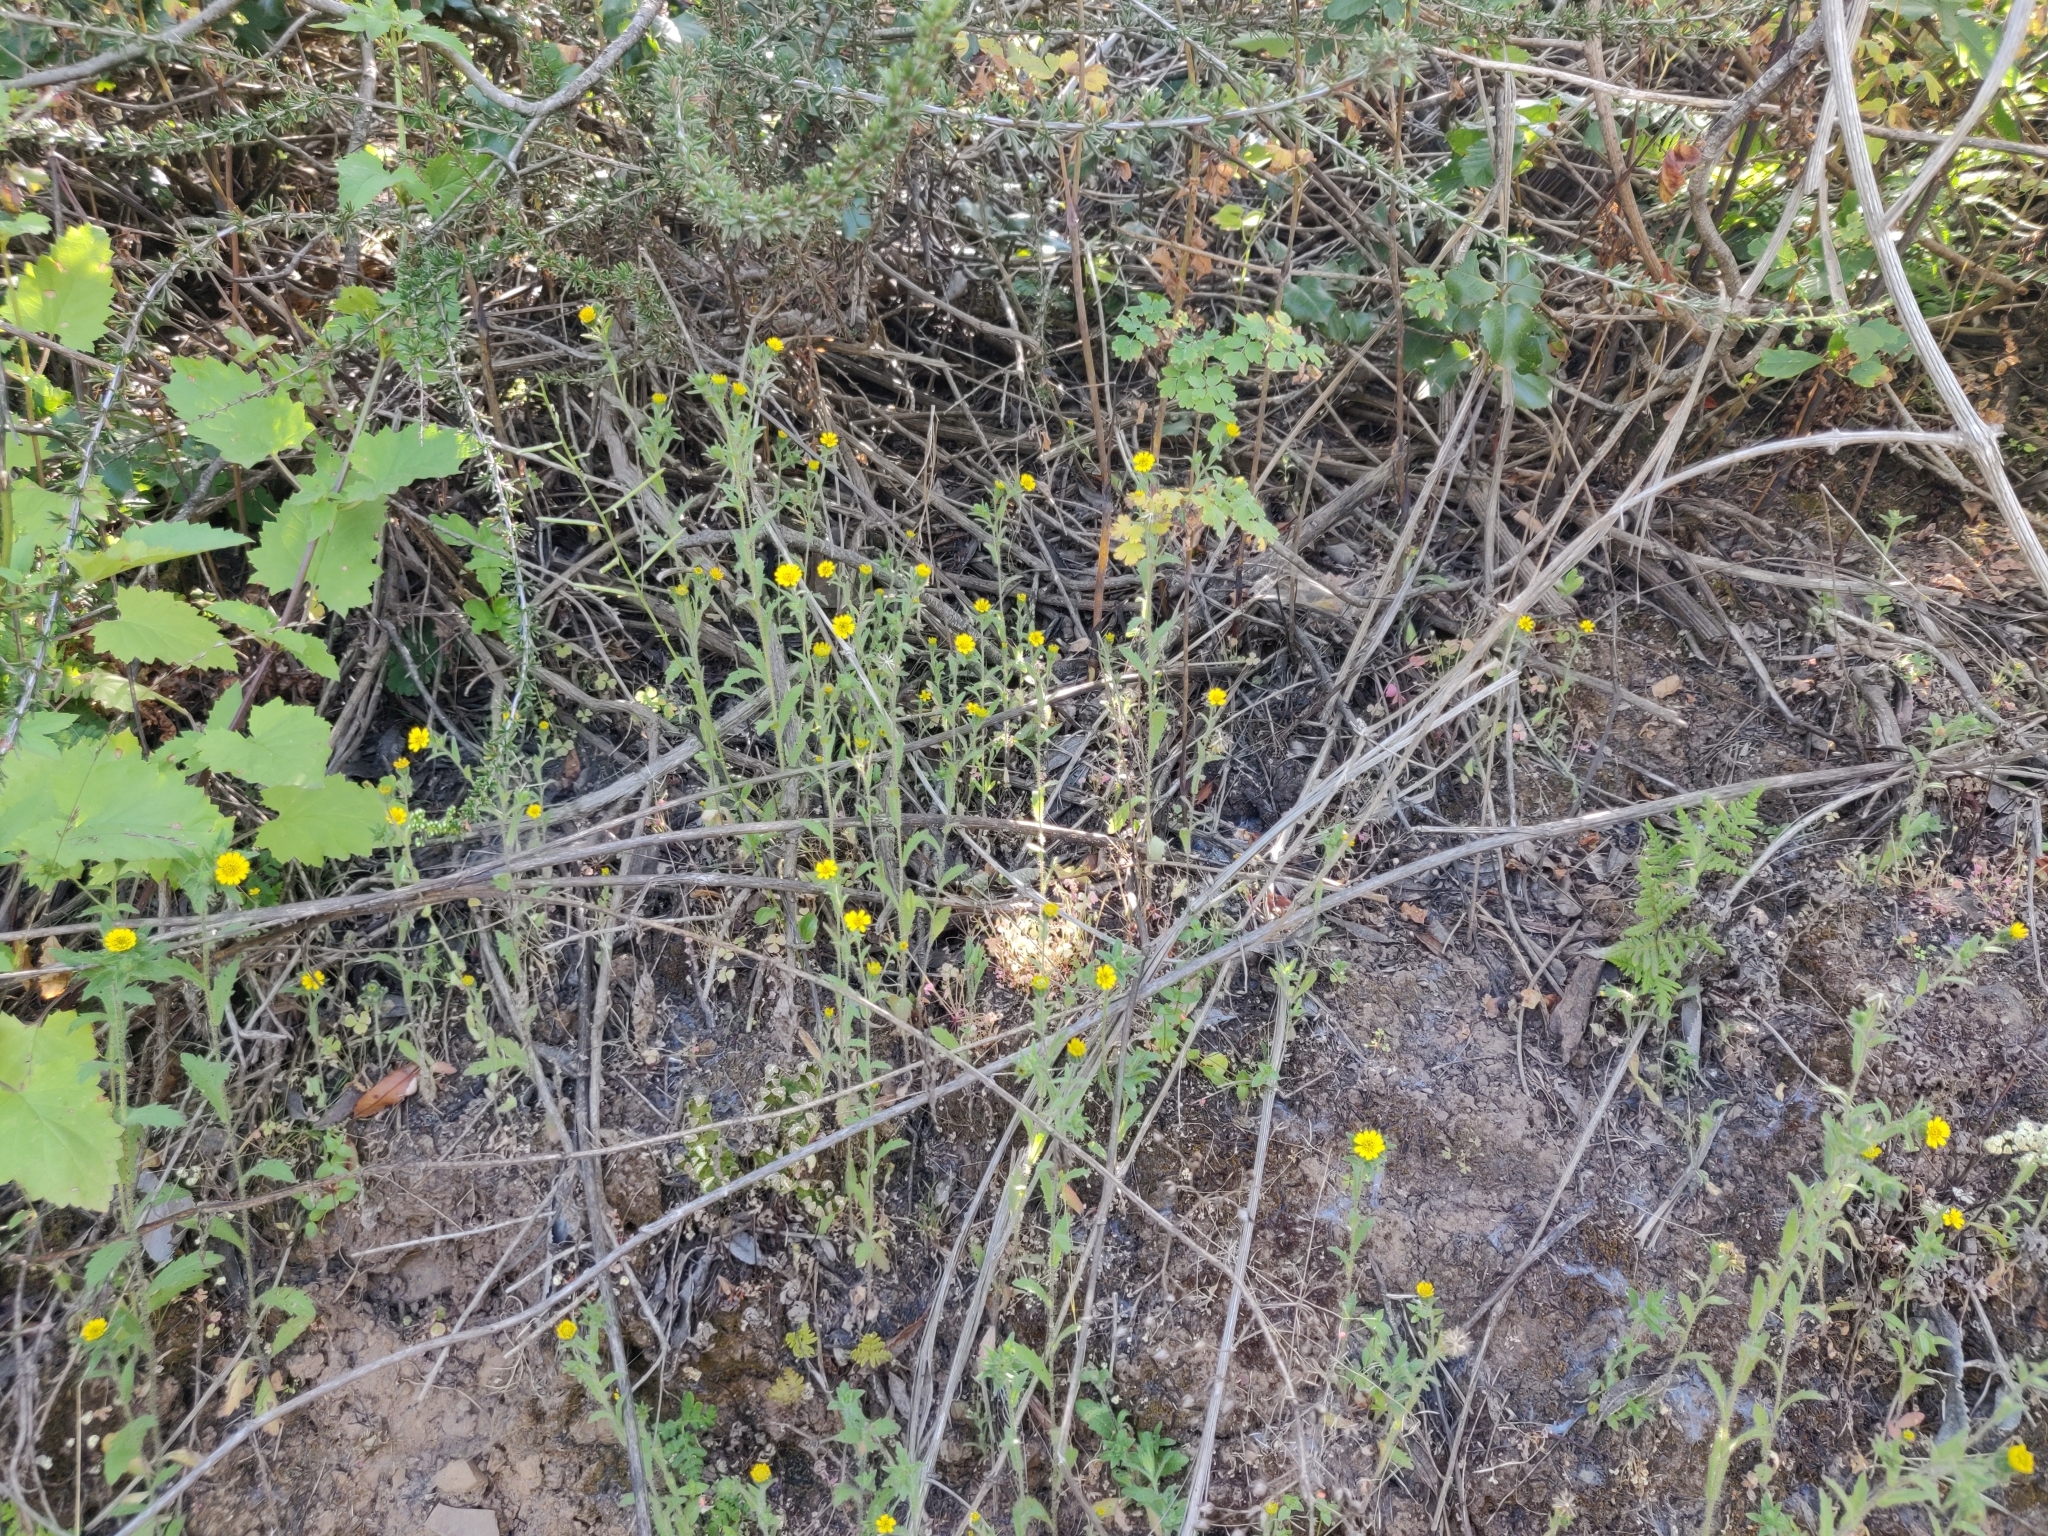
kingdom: Plantae
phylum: Tracheophyta
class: Magnoliopsida
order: Asterales
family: Asteraceae
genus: Layia
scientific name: Layia hieracioides
